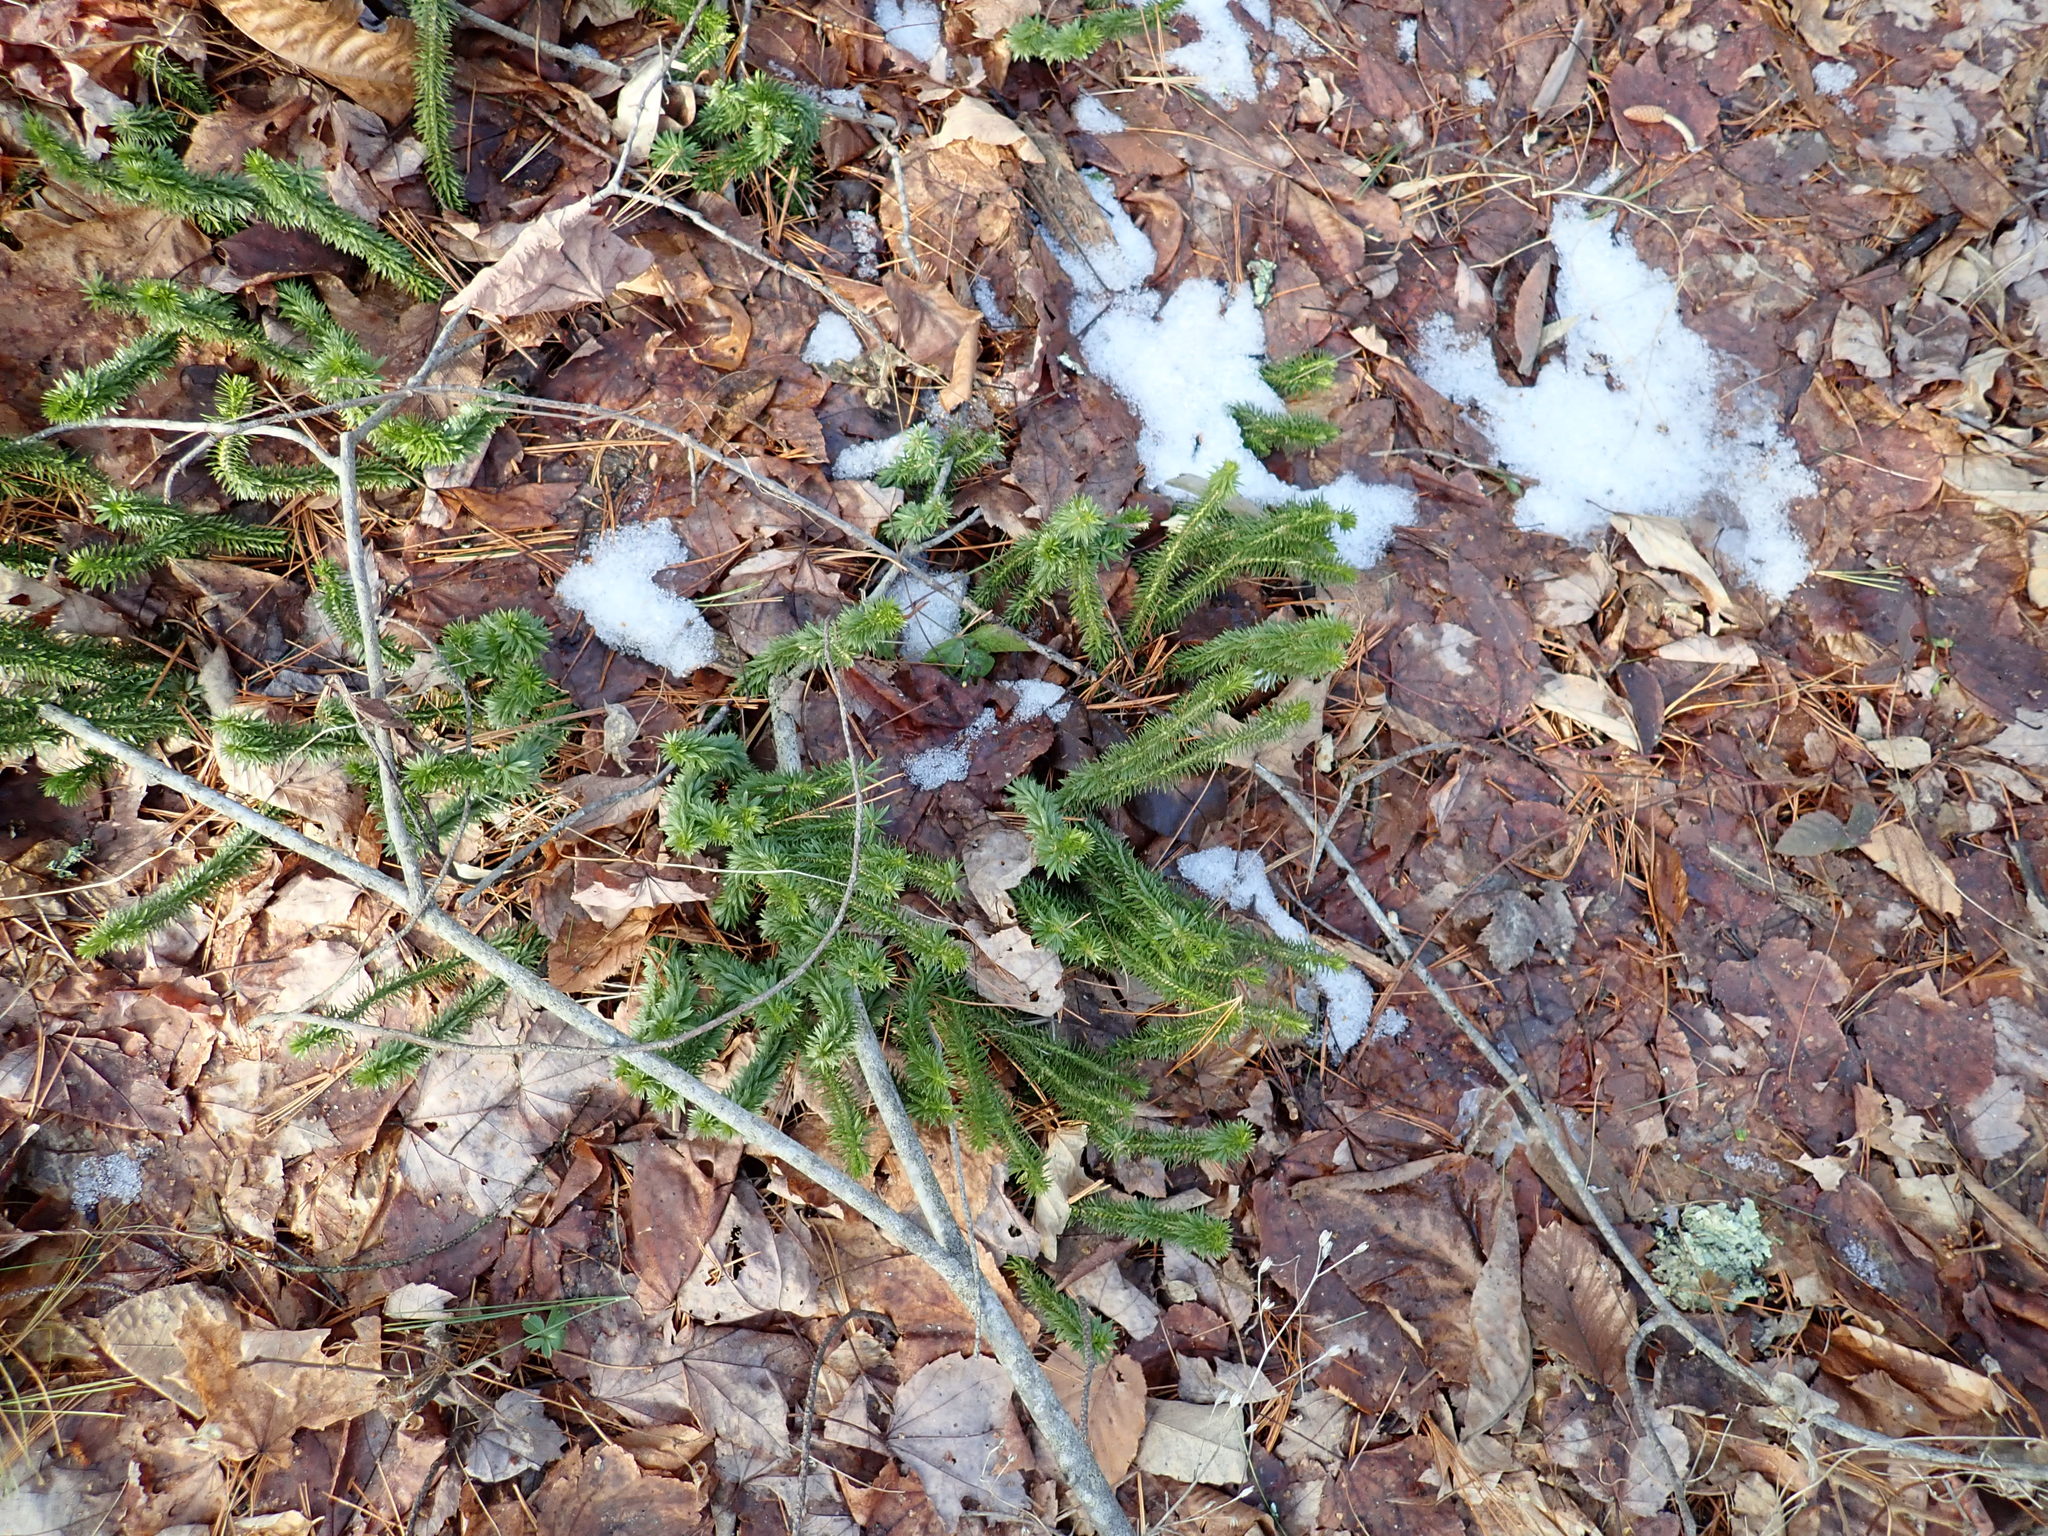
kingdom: Plantae
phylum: Tracheophyta
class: Lycopodiopsida
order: Lycopodiales
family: Lycopodiaceae
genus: Huperzia
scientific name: Huperzia lucidula
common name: Shining clubmoss
